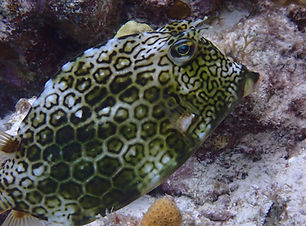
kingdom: Animalia
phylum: Chordata
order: Tetraodontiformes
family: Ostraciidae
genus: Acanthostracion
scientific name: Acanthostracion polygonius
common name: Honeycomb cowfish
